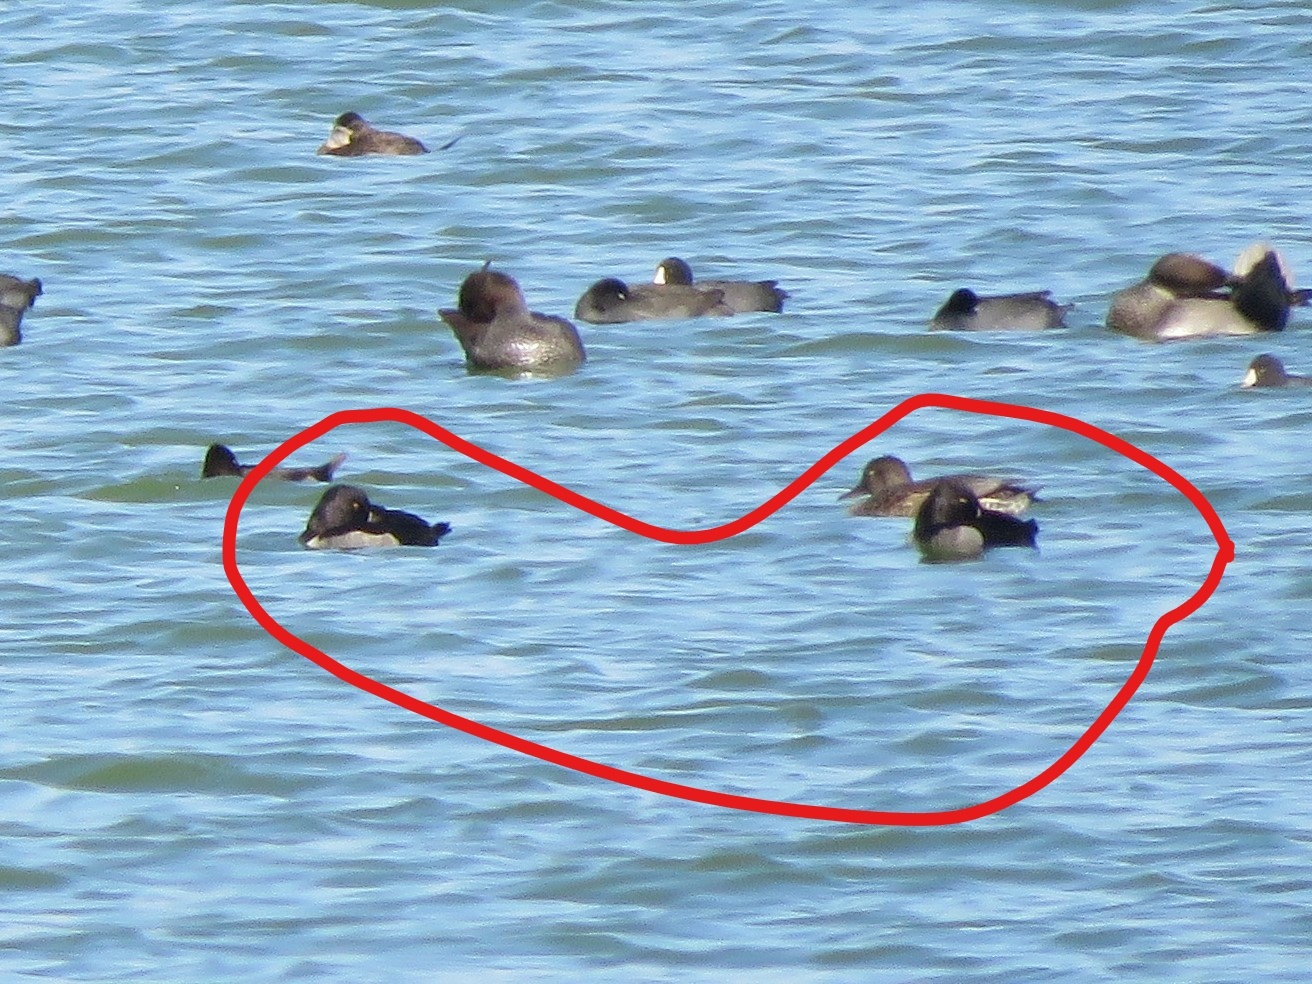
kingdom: Animalia
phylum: Chordata
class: Aves
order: Anseriformes
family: Anatidae
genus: Aythya
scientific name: Aythya collaris
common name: Ring-necked duck
